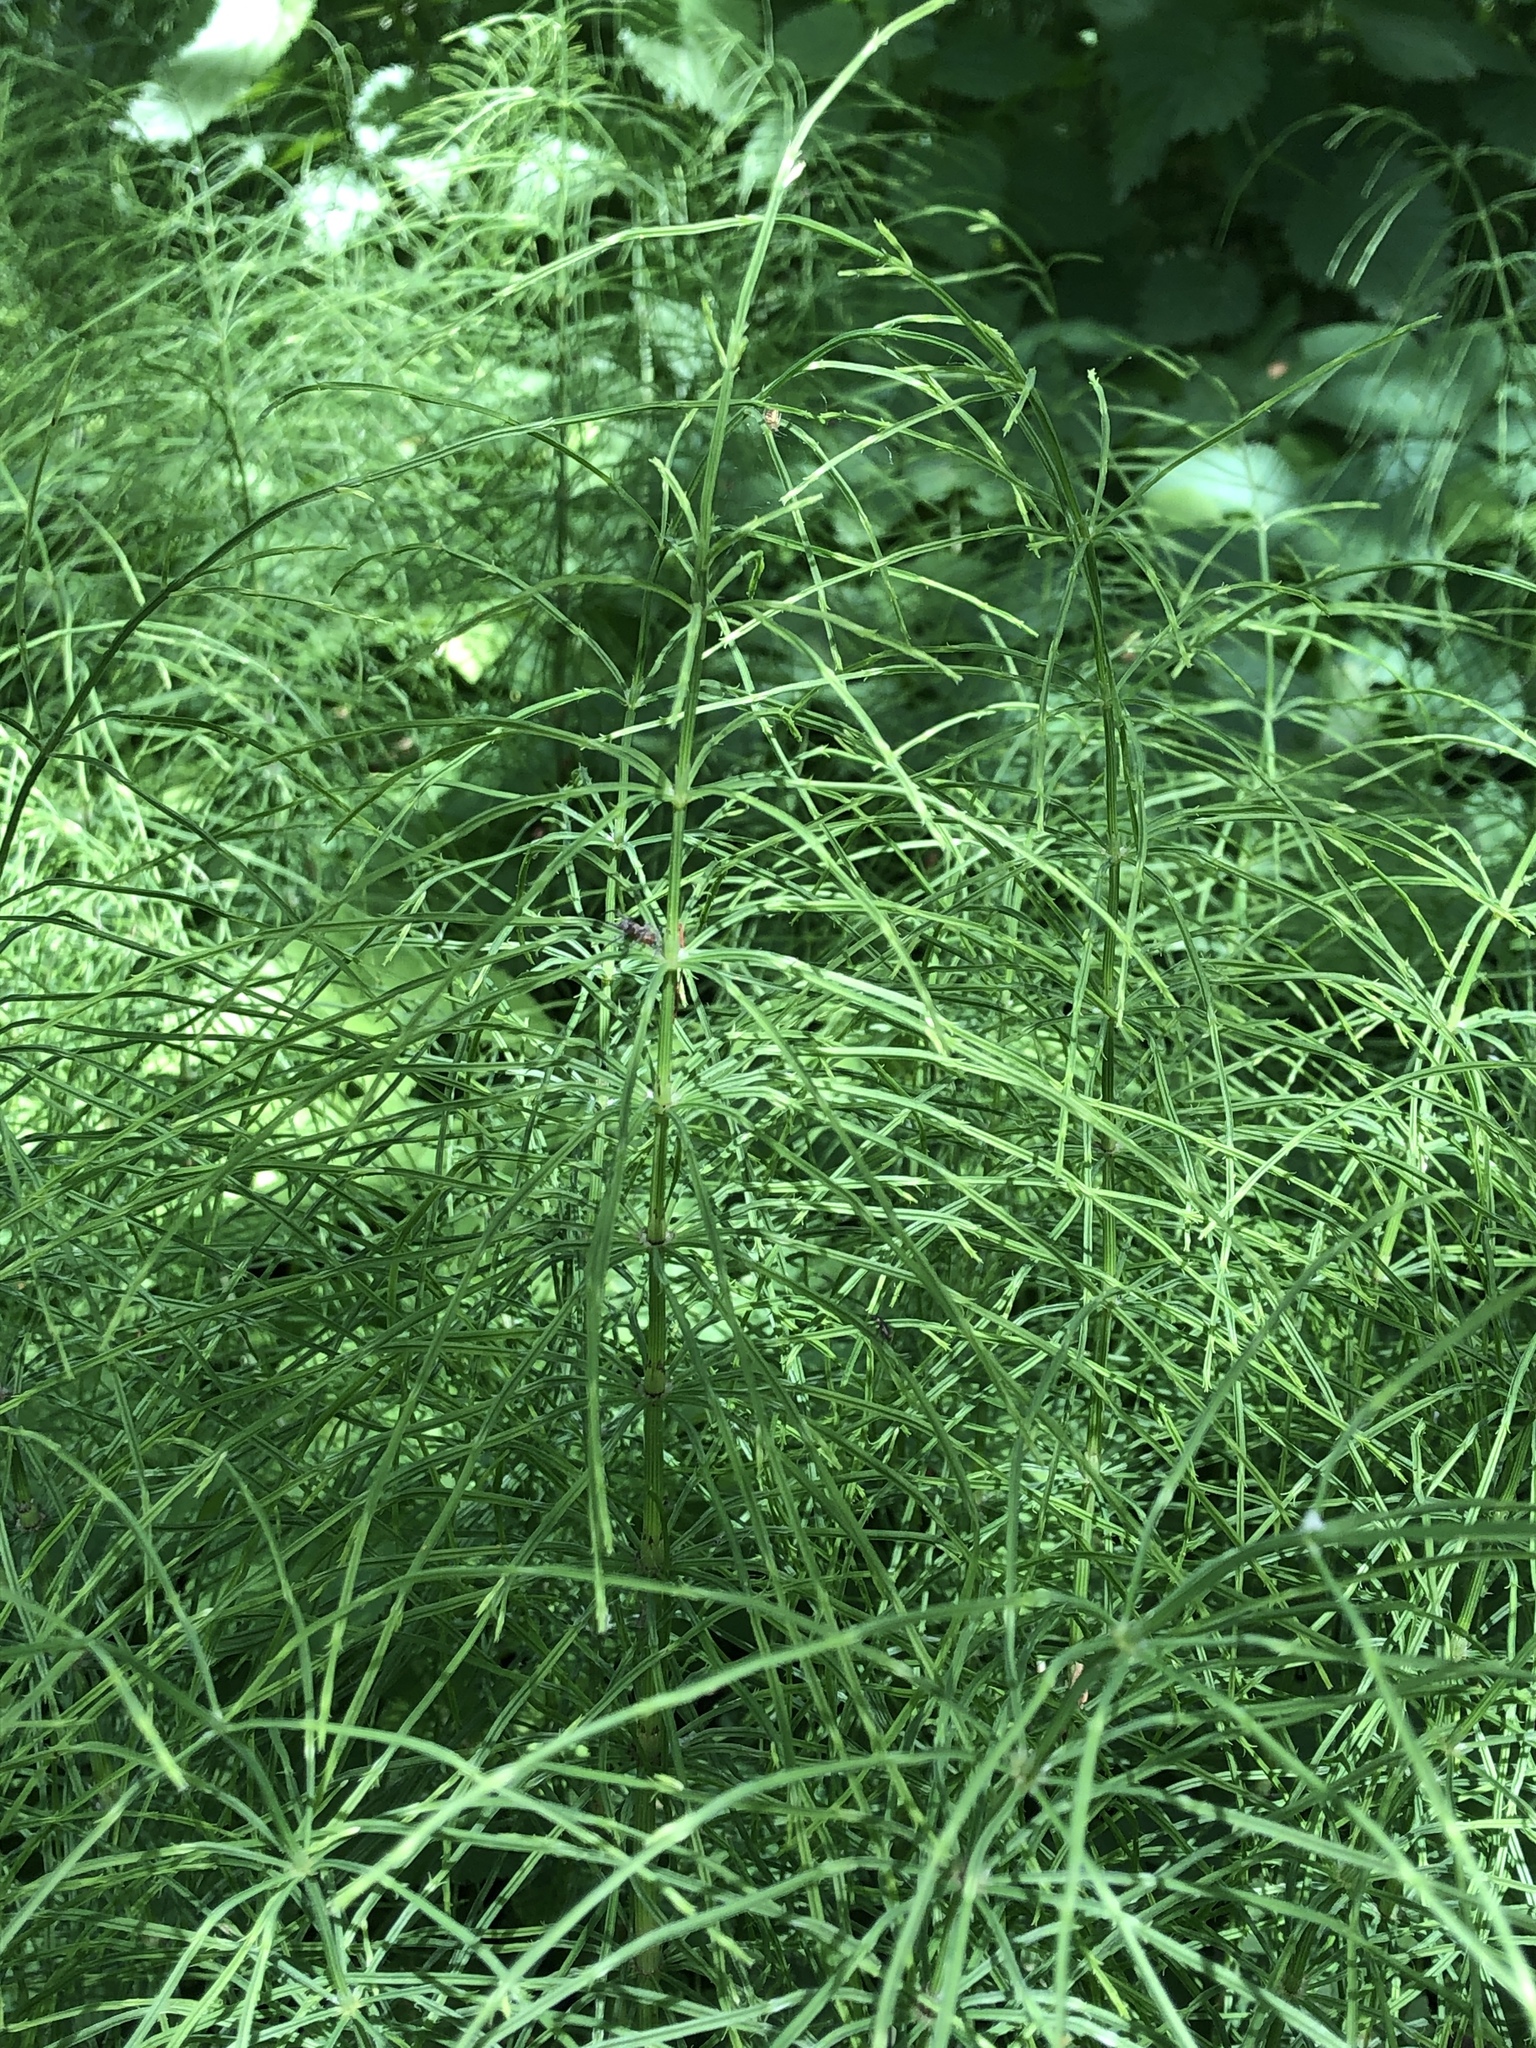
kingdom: Plantae
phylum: Tracheophyta
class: Polypodiopsida
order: Equisetales
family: Equisetaceae
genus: Equisetum
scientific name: Equisetum arvense
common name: Field horsetail
